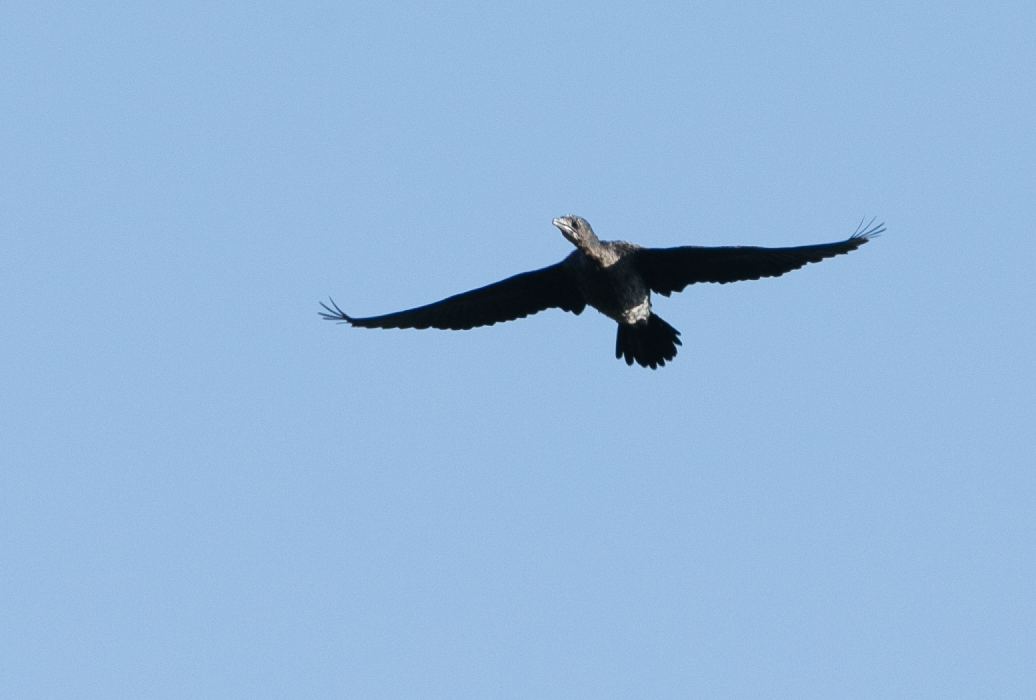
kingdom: Animalia
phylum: Chordata
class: Aves
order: Suliformes
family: Phalacrocoracidae
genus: Microcarbo
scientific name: Microcarbo pygmaeus
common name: Pygmy cormorant
